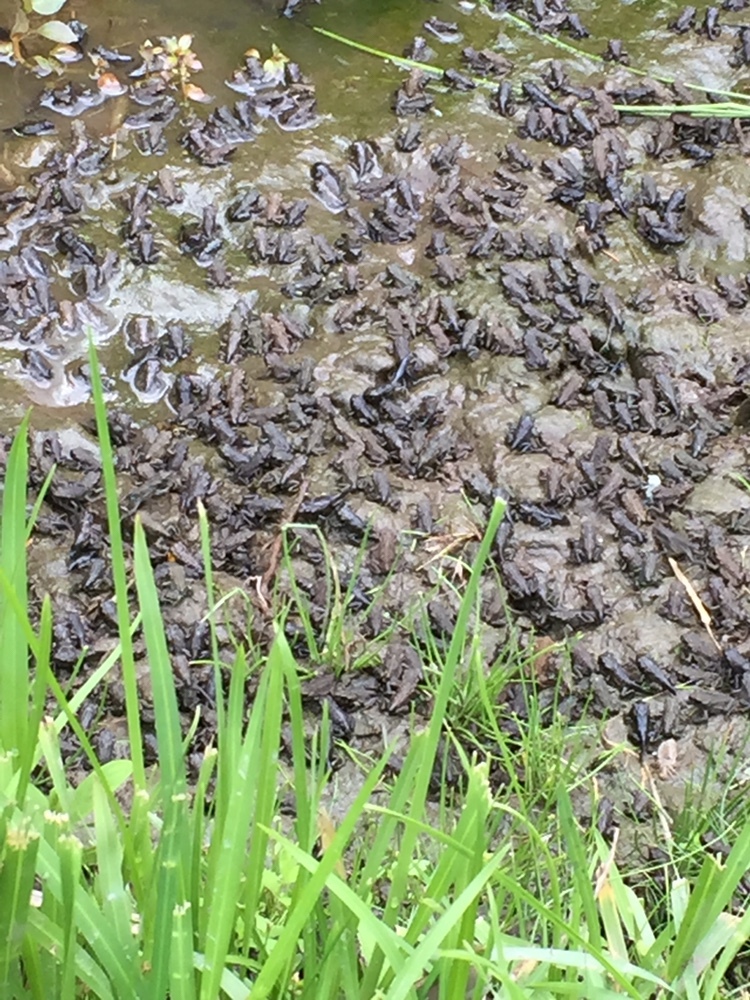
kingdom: Animalia
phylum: Chordata
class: Amphibia
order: Anura
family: Bufonidae
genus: Anaxyrus
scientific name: Anaxyrus boreas
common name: Western toad
